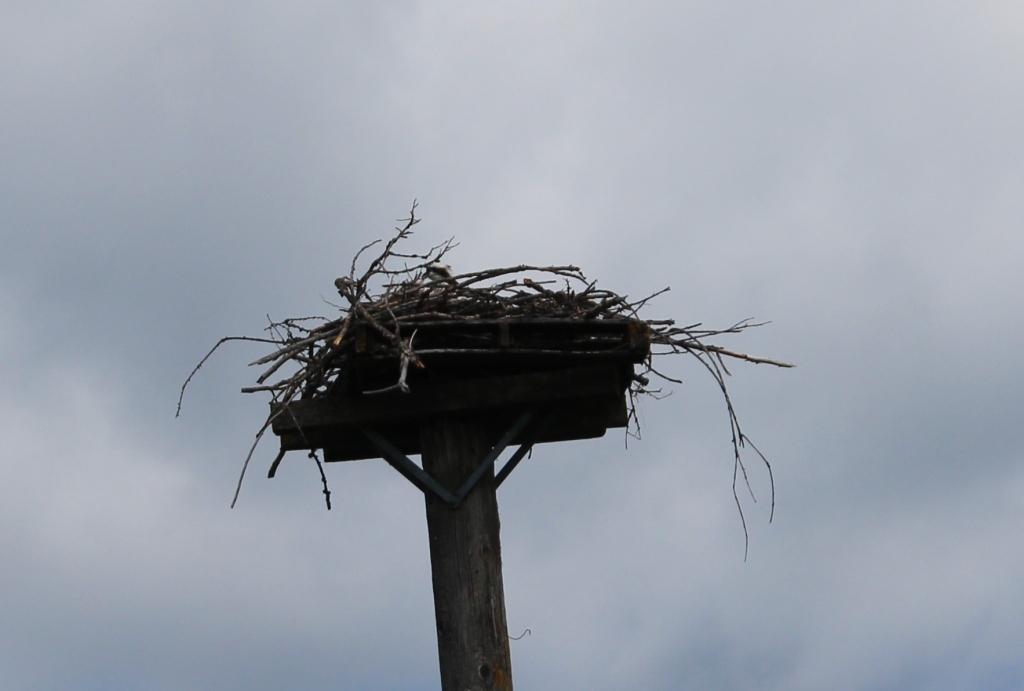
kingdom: Animalia
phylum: Chordata
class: Aves
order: Accipitriformes
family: Pandionidae
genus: Pandion
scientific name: Pandion haliaetus
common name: Osprey
